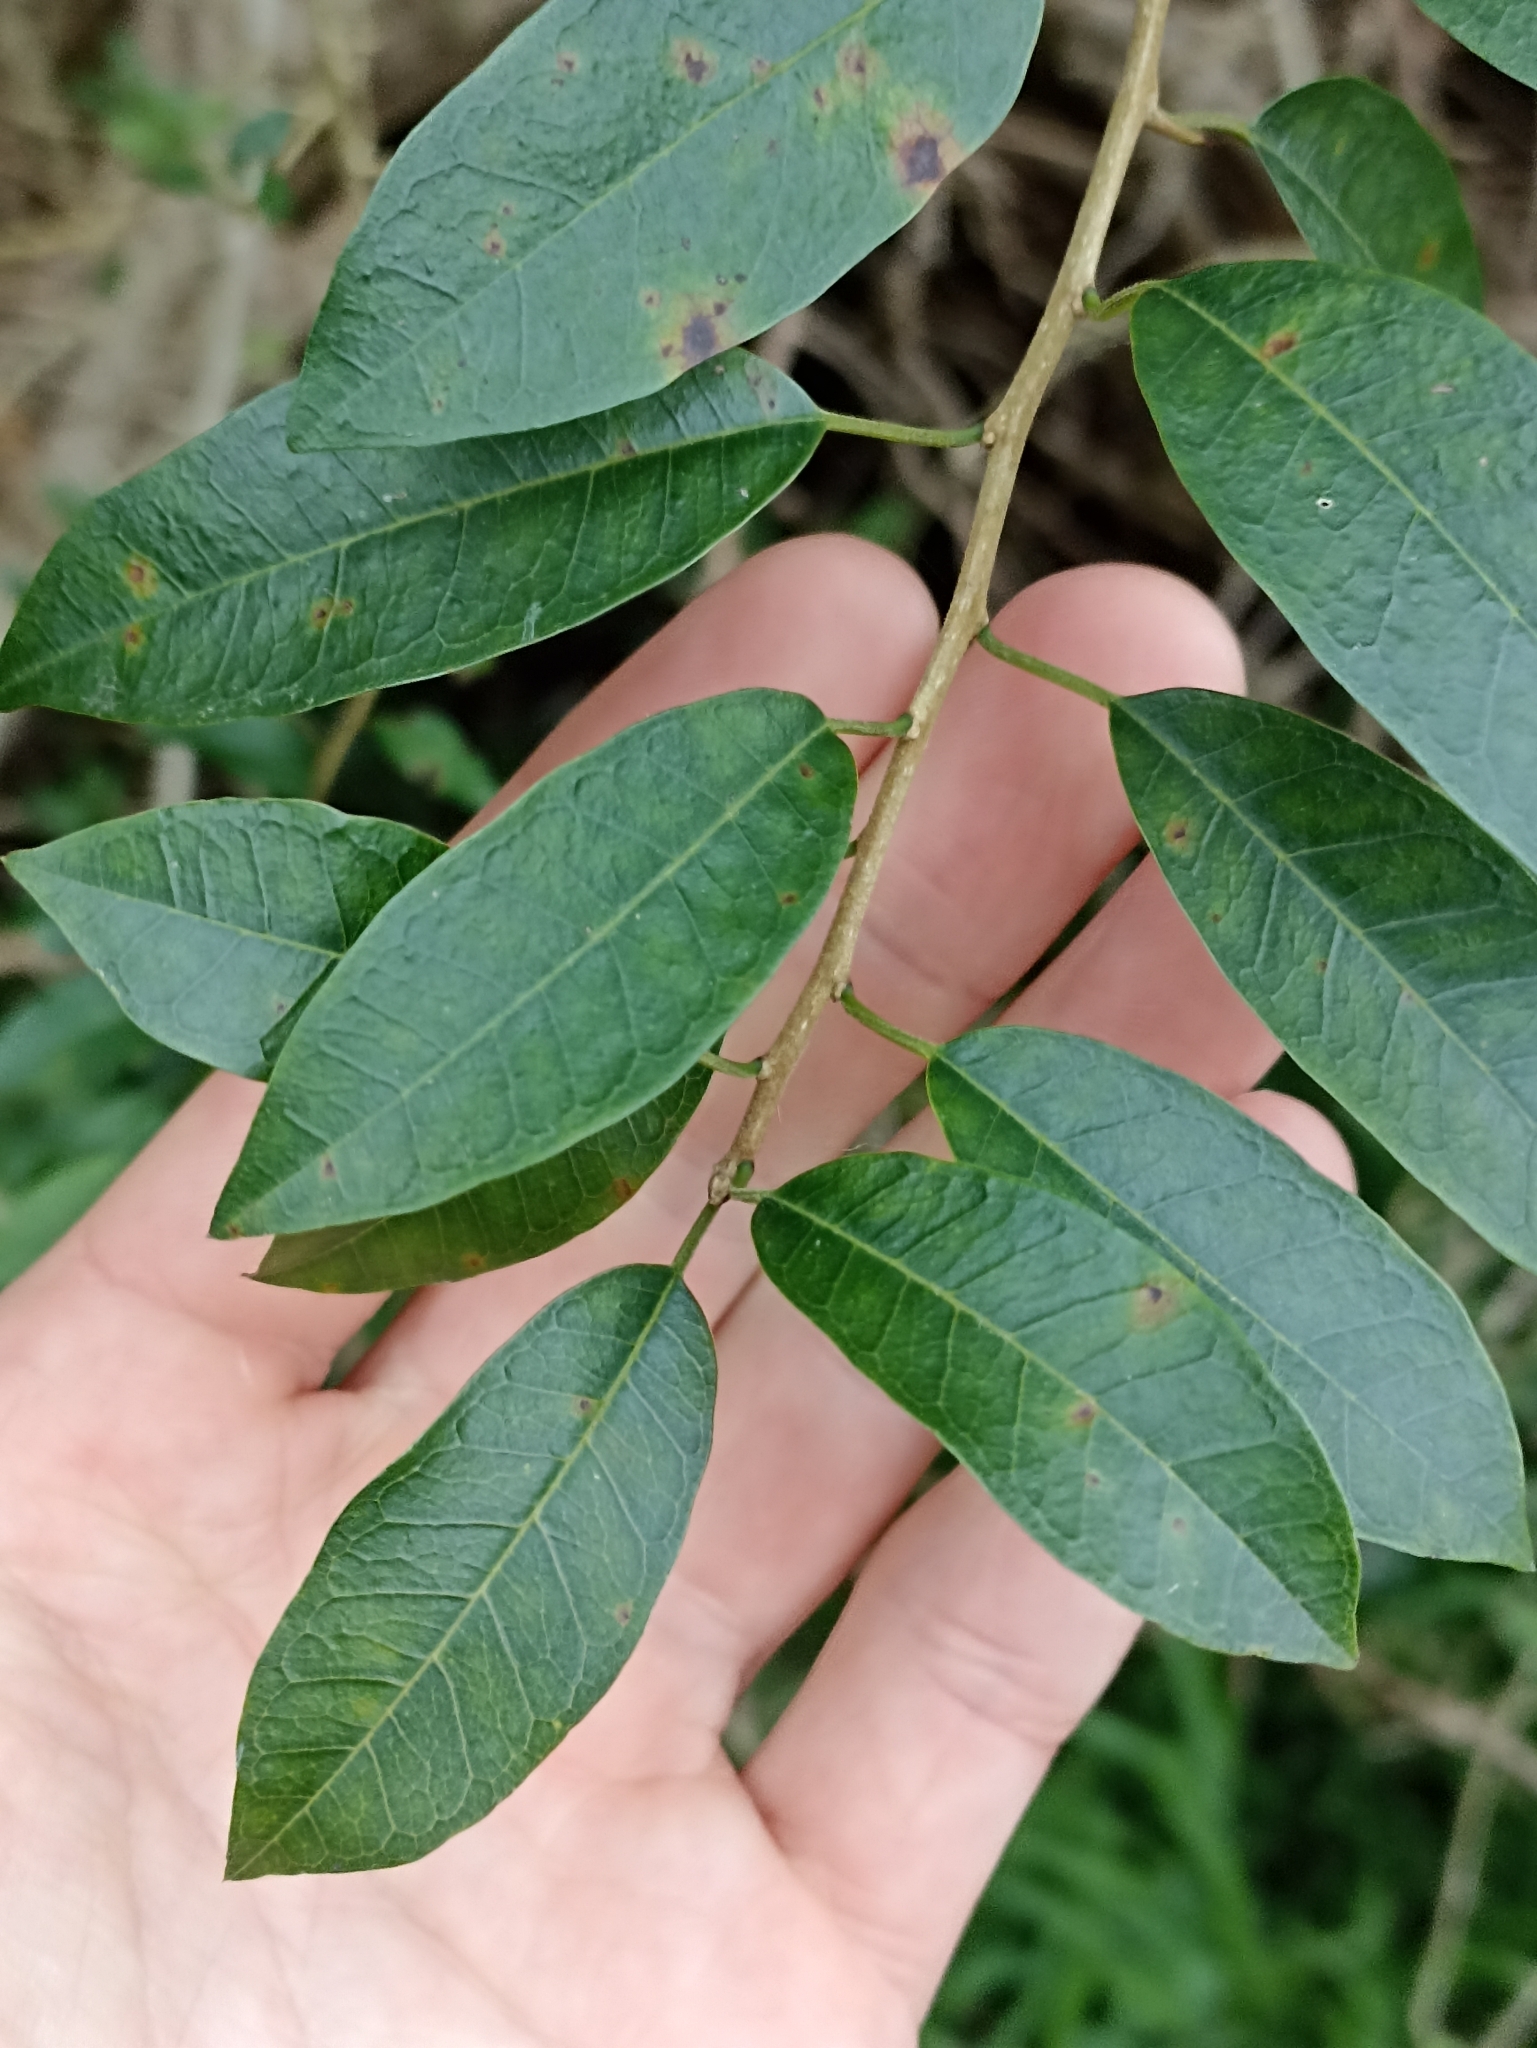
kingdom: Plantae
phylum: Tracheophyta
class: Magnoliopsida
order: Rosales
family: Moraceae
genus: Maclura
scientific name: Maclura cochinchinensis
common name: Cockspurthorn
